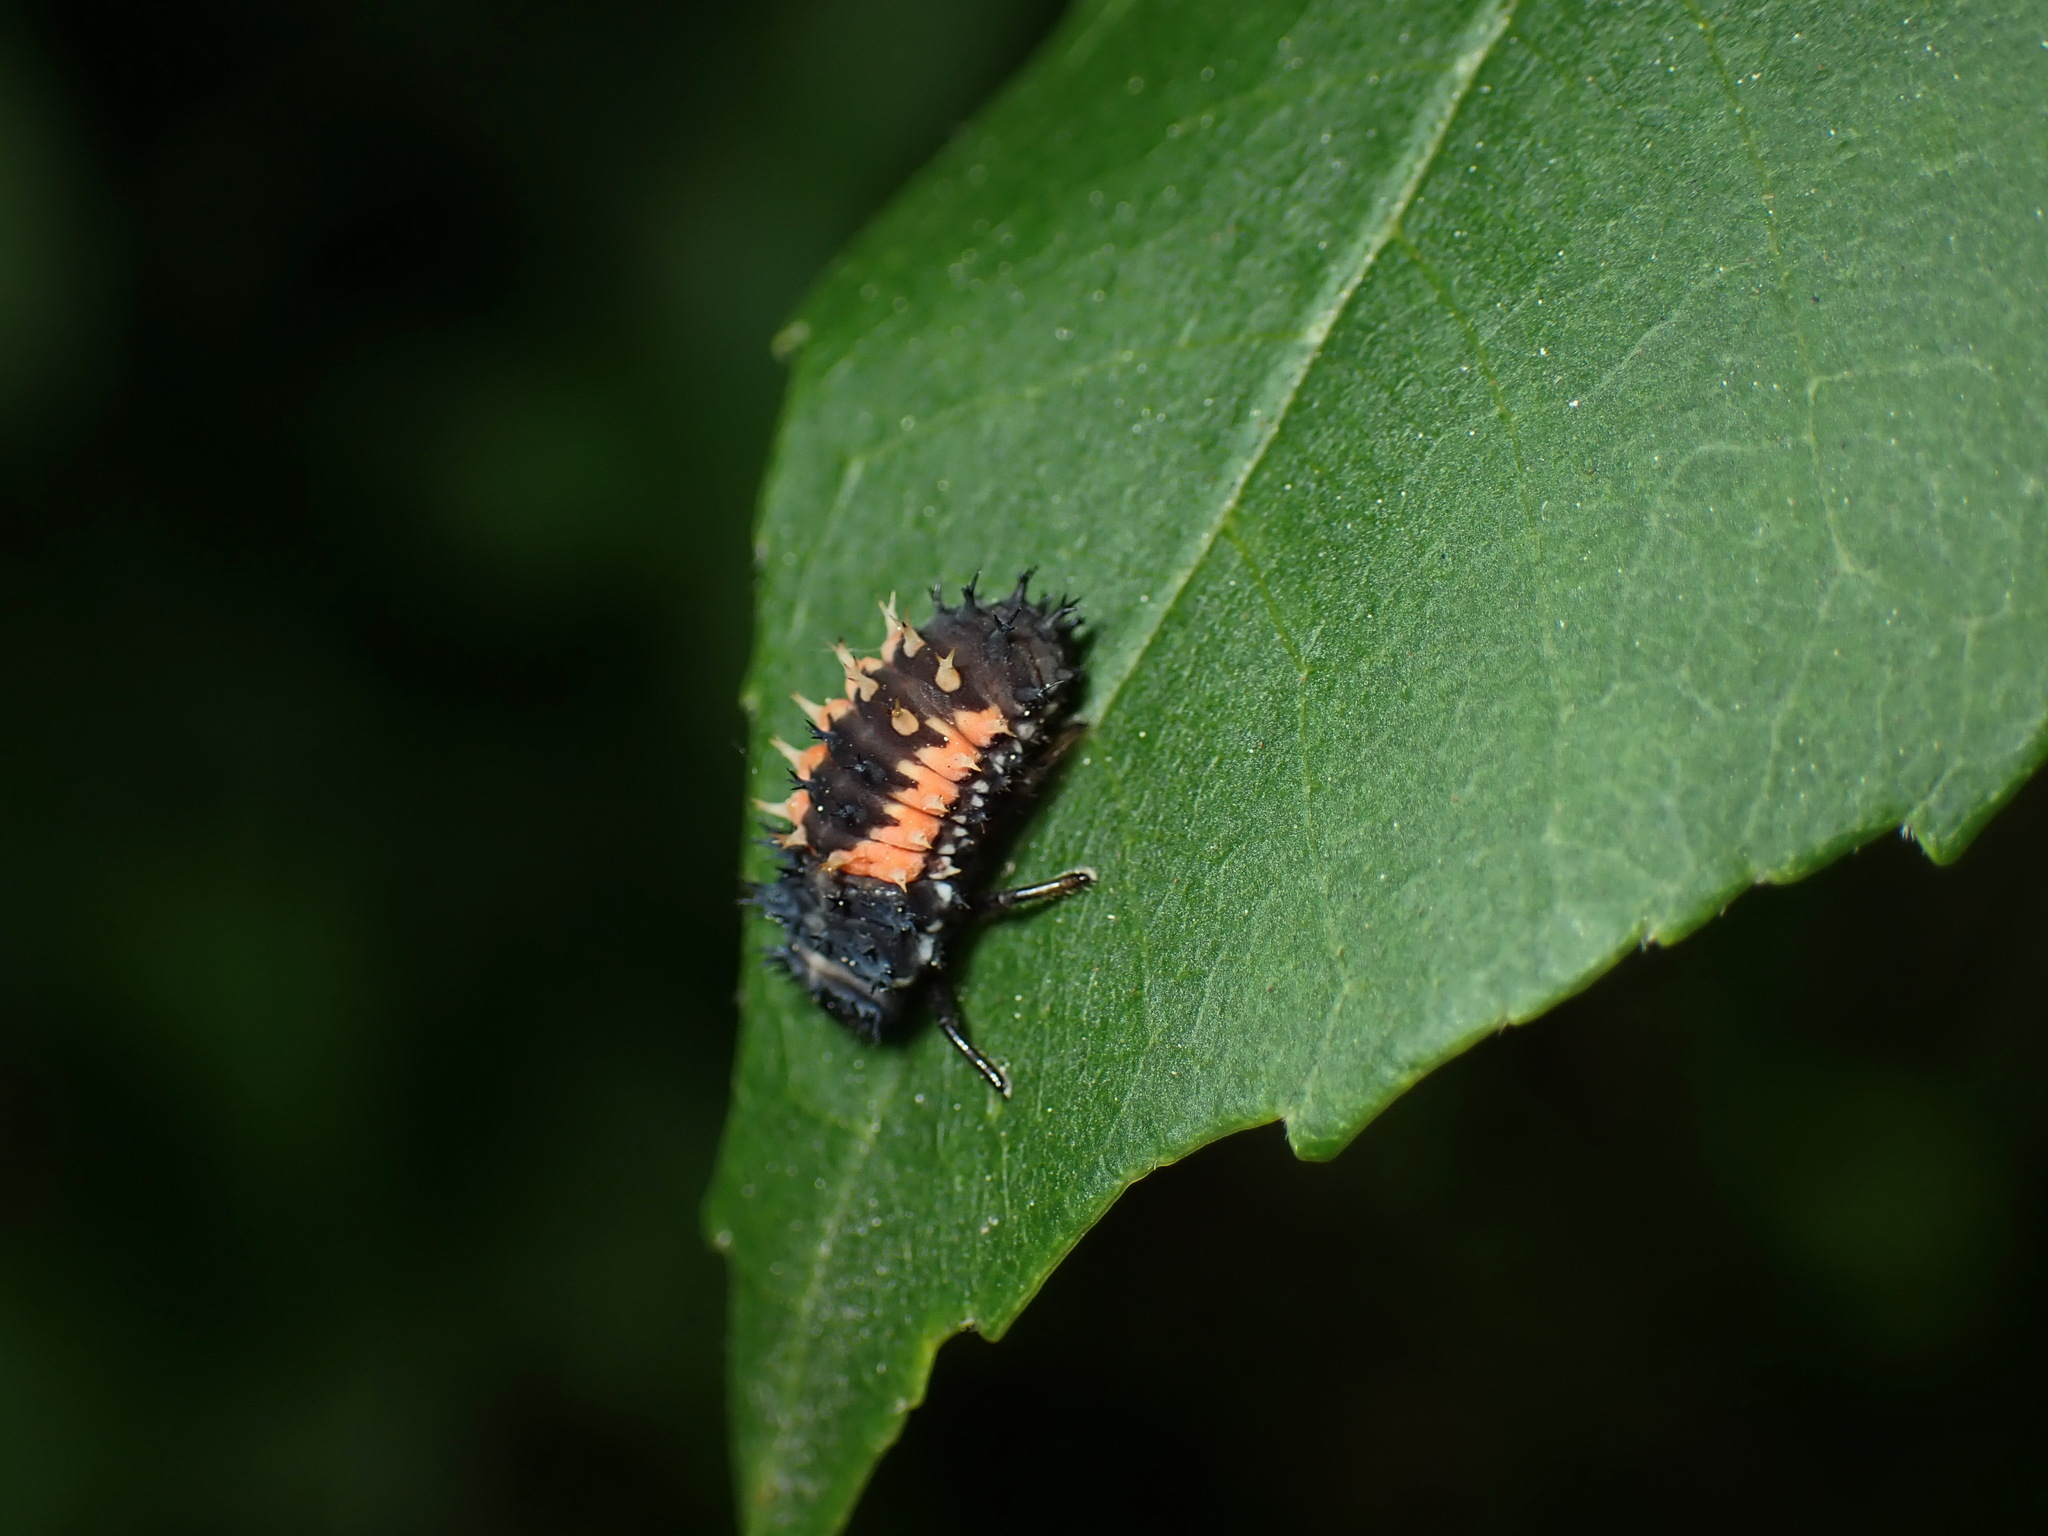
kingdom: Animalia
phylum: Arthropoda
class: Insecta
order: Coleoptera
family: Coccinellidae
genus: Harmonia
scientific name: Harmonia axyridis
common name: Harlequin ladybird
